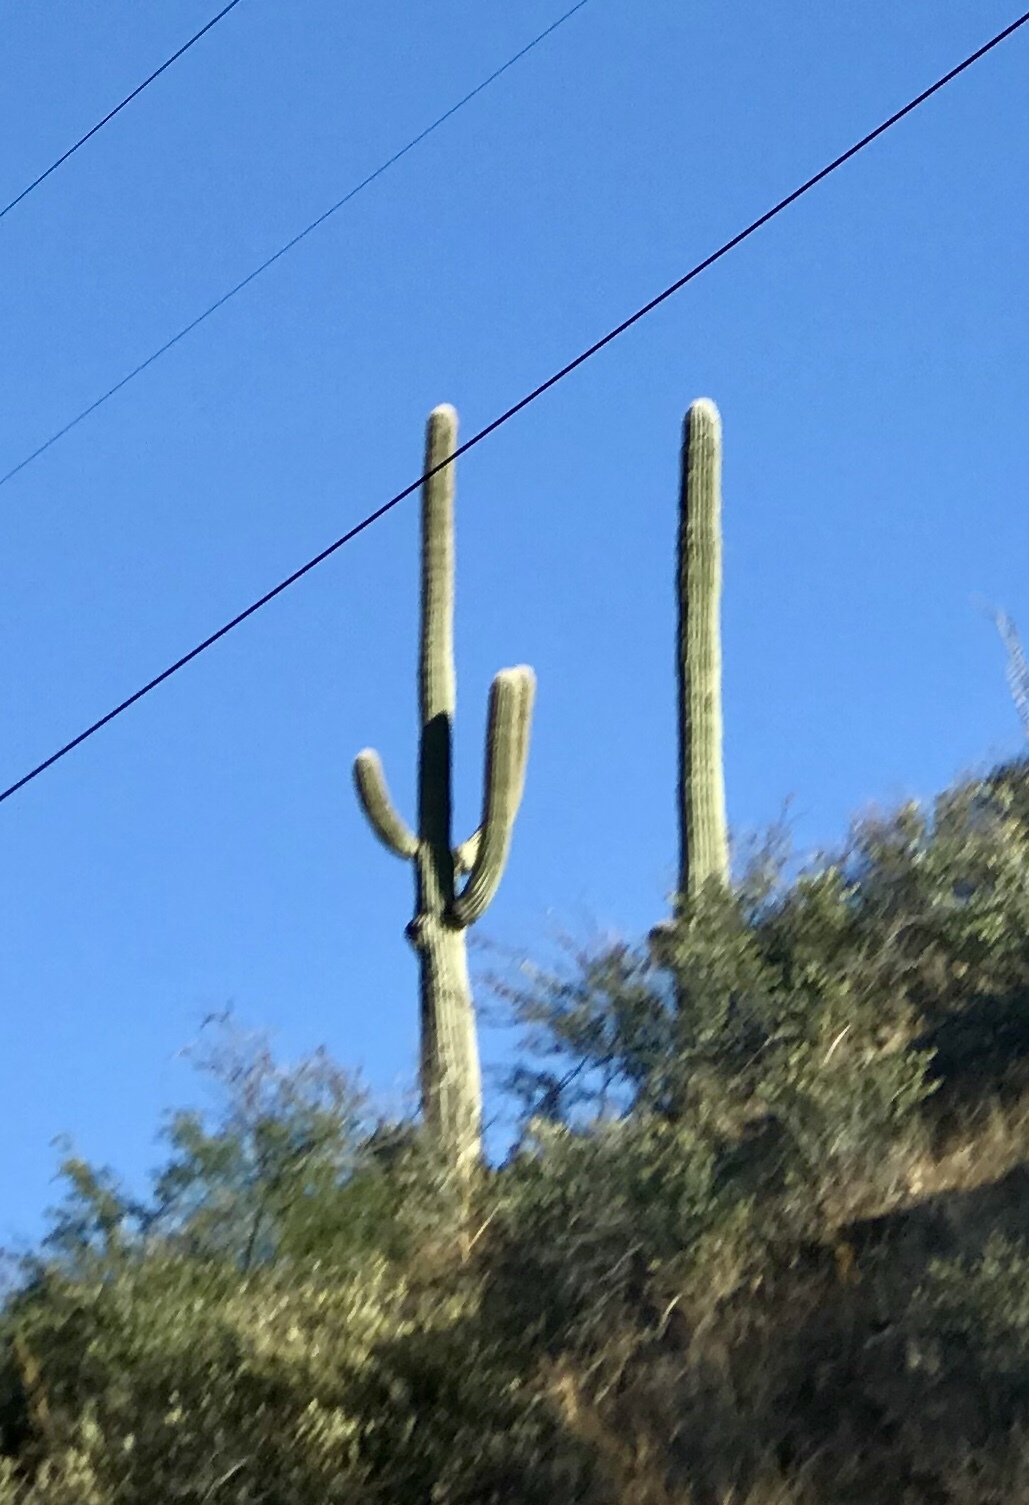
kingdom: Plantae
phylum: Tracheophyta
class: Magnoliopsida
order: Caryophyllales
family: Cactaceae
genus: Carnegiea
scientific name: Carnegiea gigantea
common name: Saguaro
